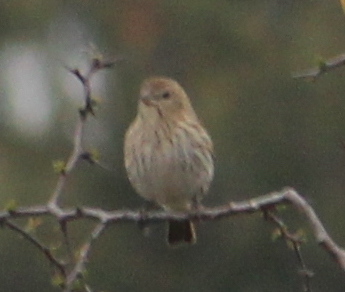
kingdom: Animalia
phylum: Chordata
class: Aves
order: Passeriformes
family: Thraupidae
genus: Sicalis
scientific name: Sicalis flaveola
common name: Saffron finch
